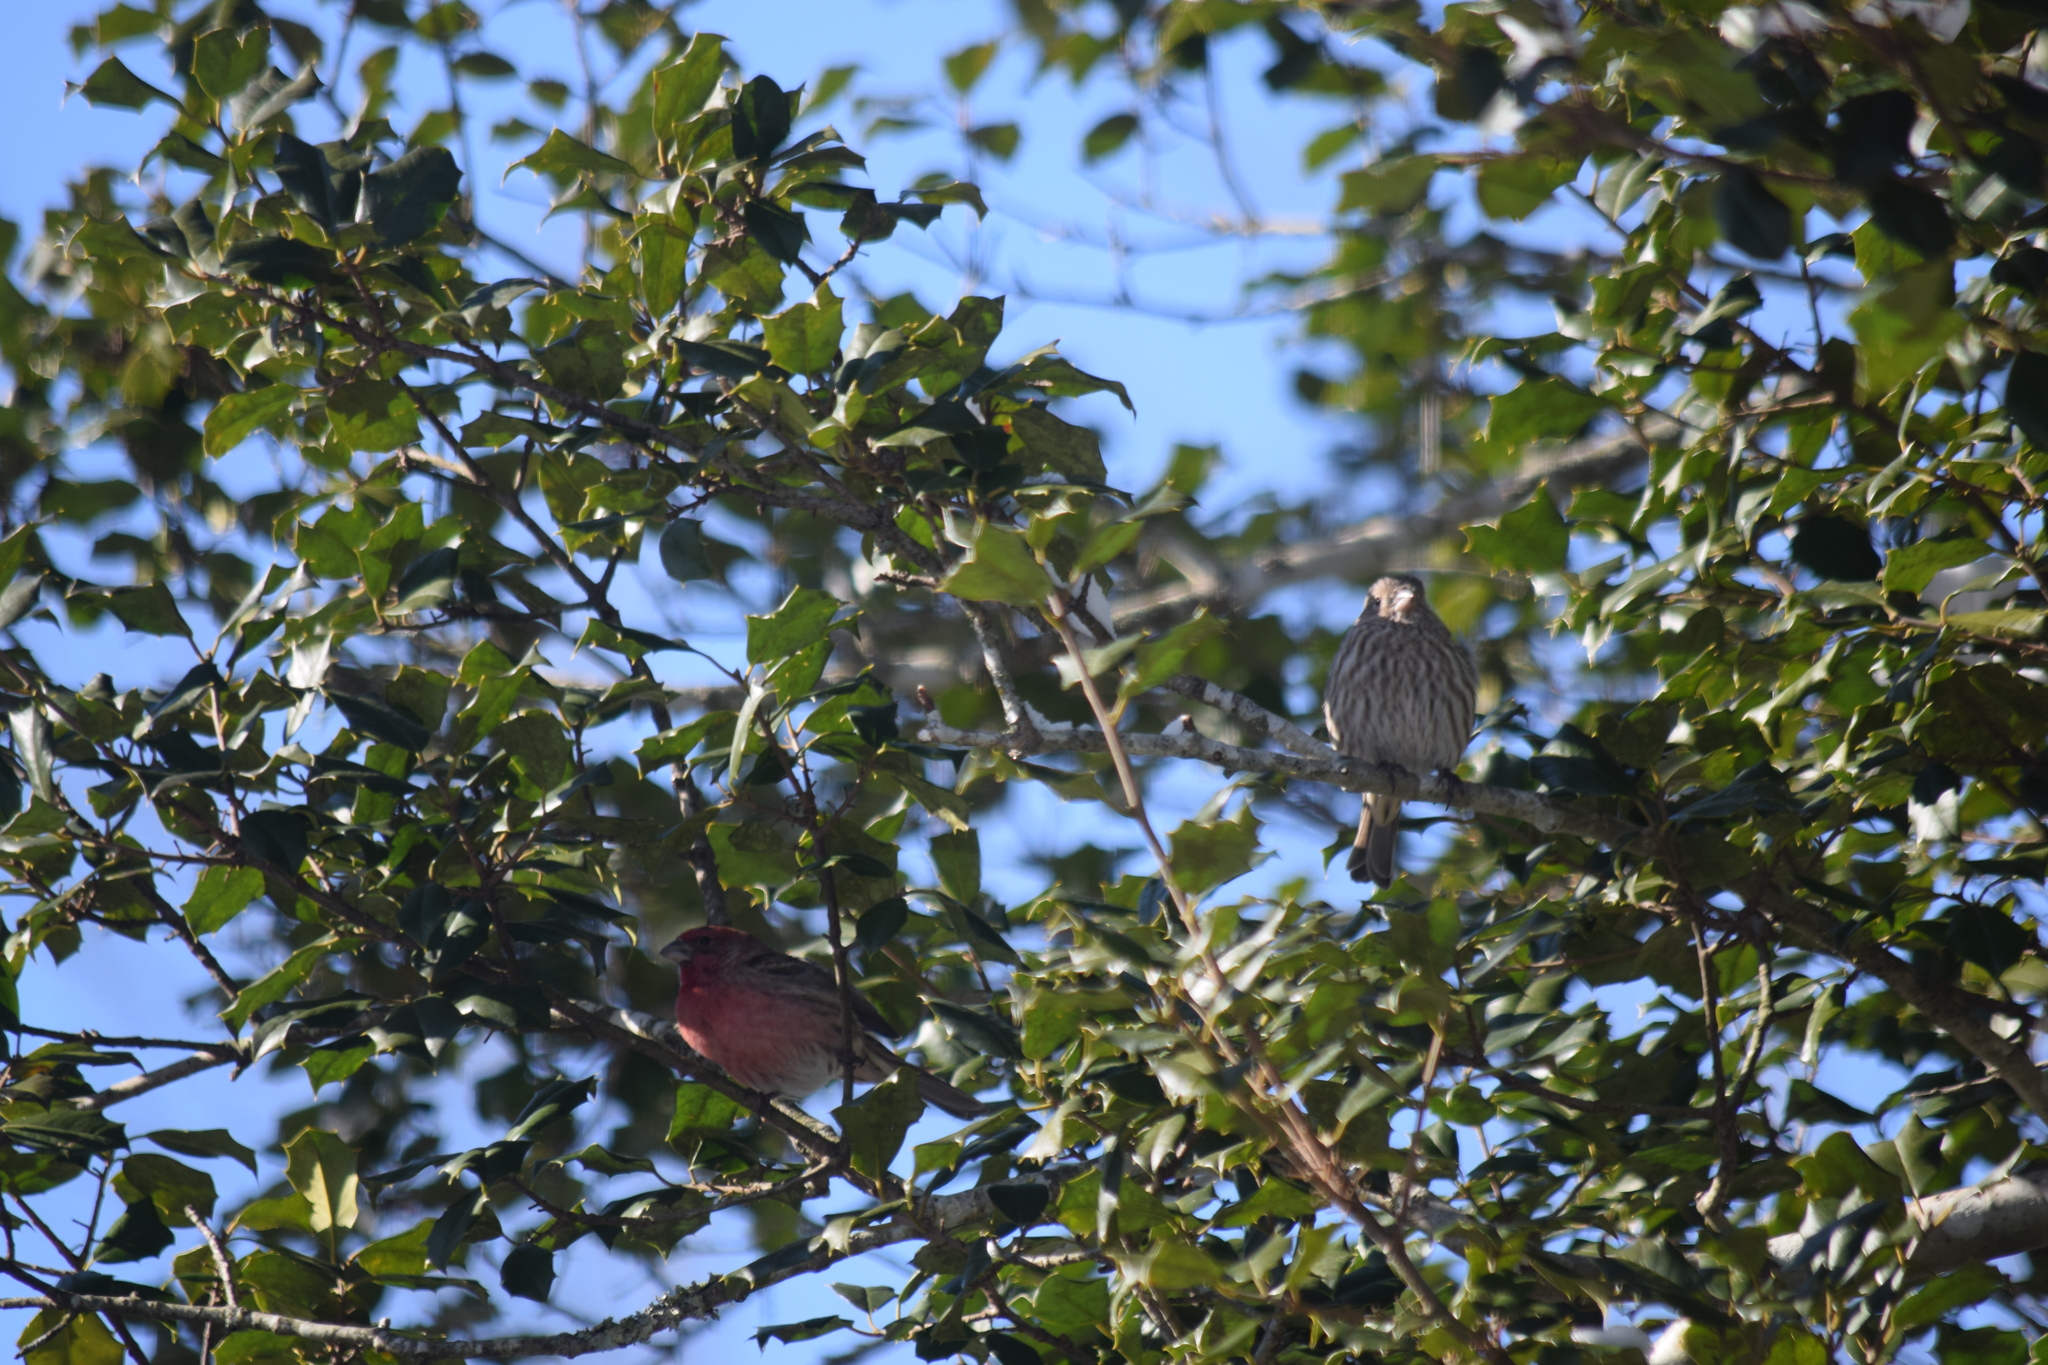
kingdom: Animalia
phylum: Chordata
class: Aves
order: Passeriformes
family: Fringillidae
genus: Haemorhous
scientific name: Haemorhous mexicanus
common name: House finch
